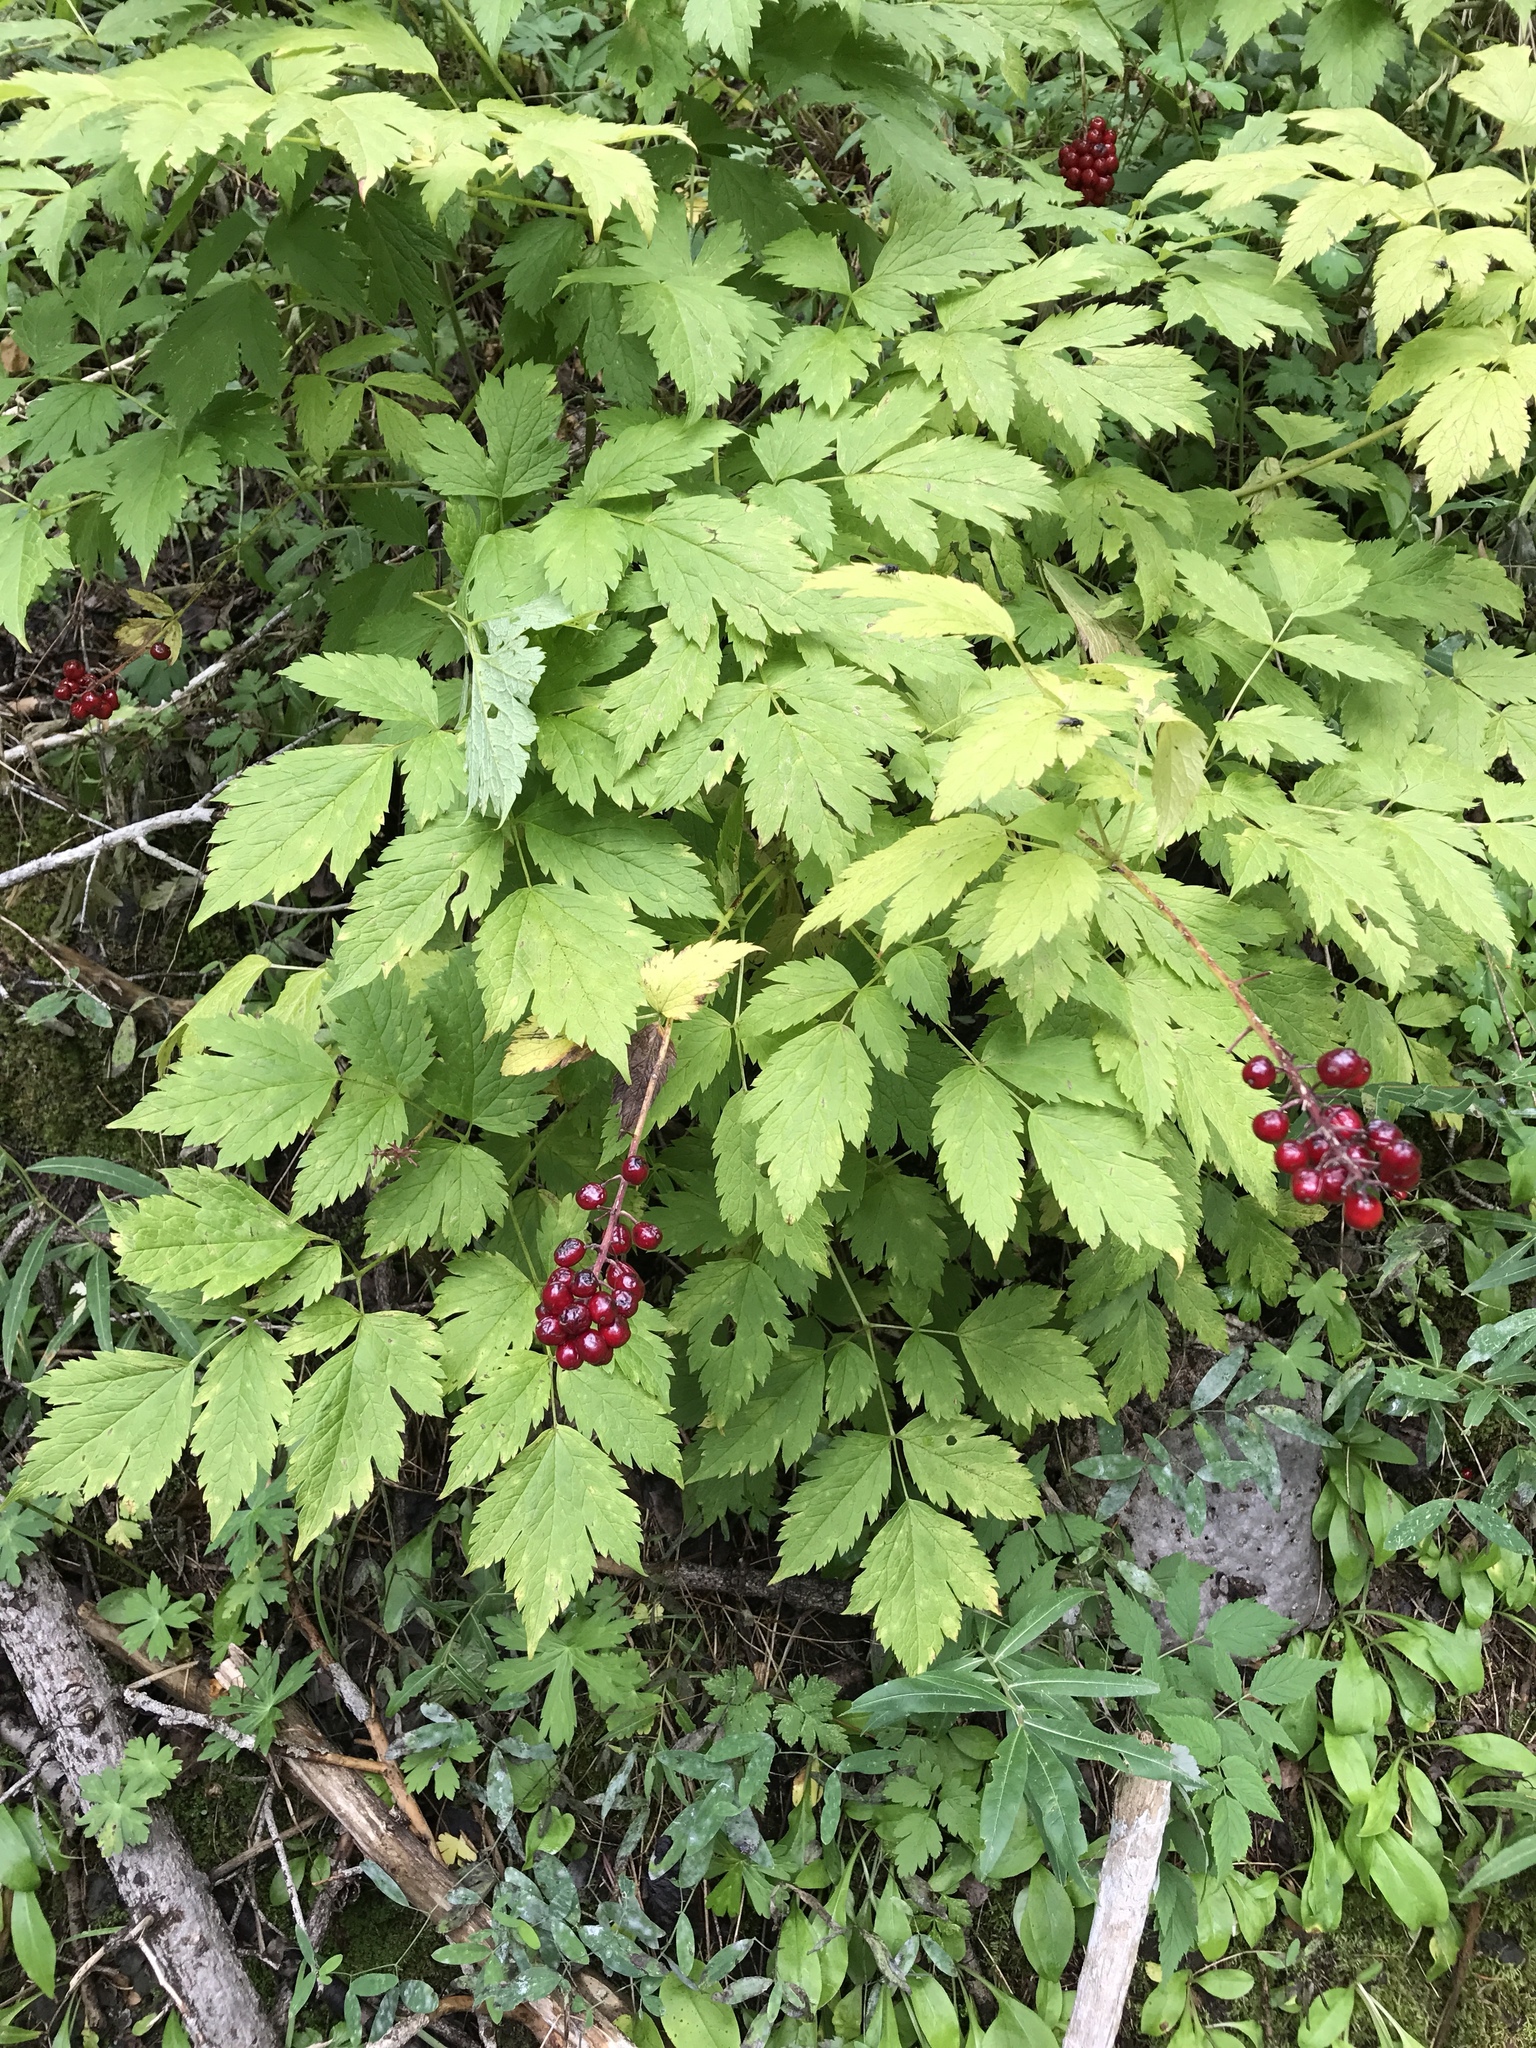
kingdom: Plantae
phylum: Tracheophyta
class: Magnoliopsida
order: Ranunculales
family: Ranunculaceae
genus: Actaea
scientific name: Actaea rubra
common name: Red baneberry
